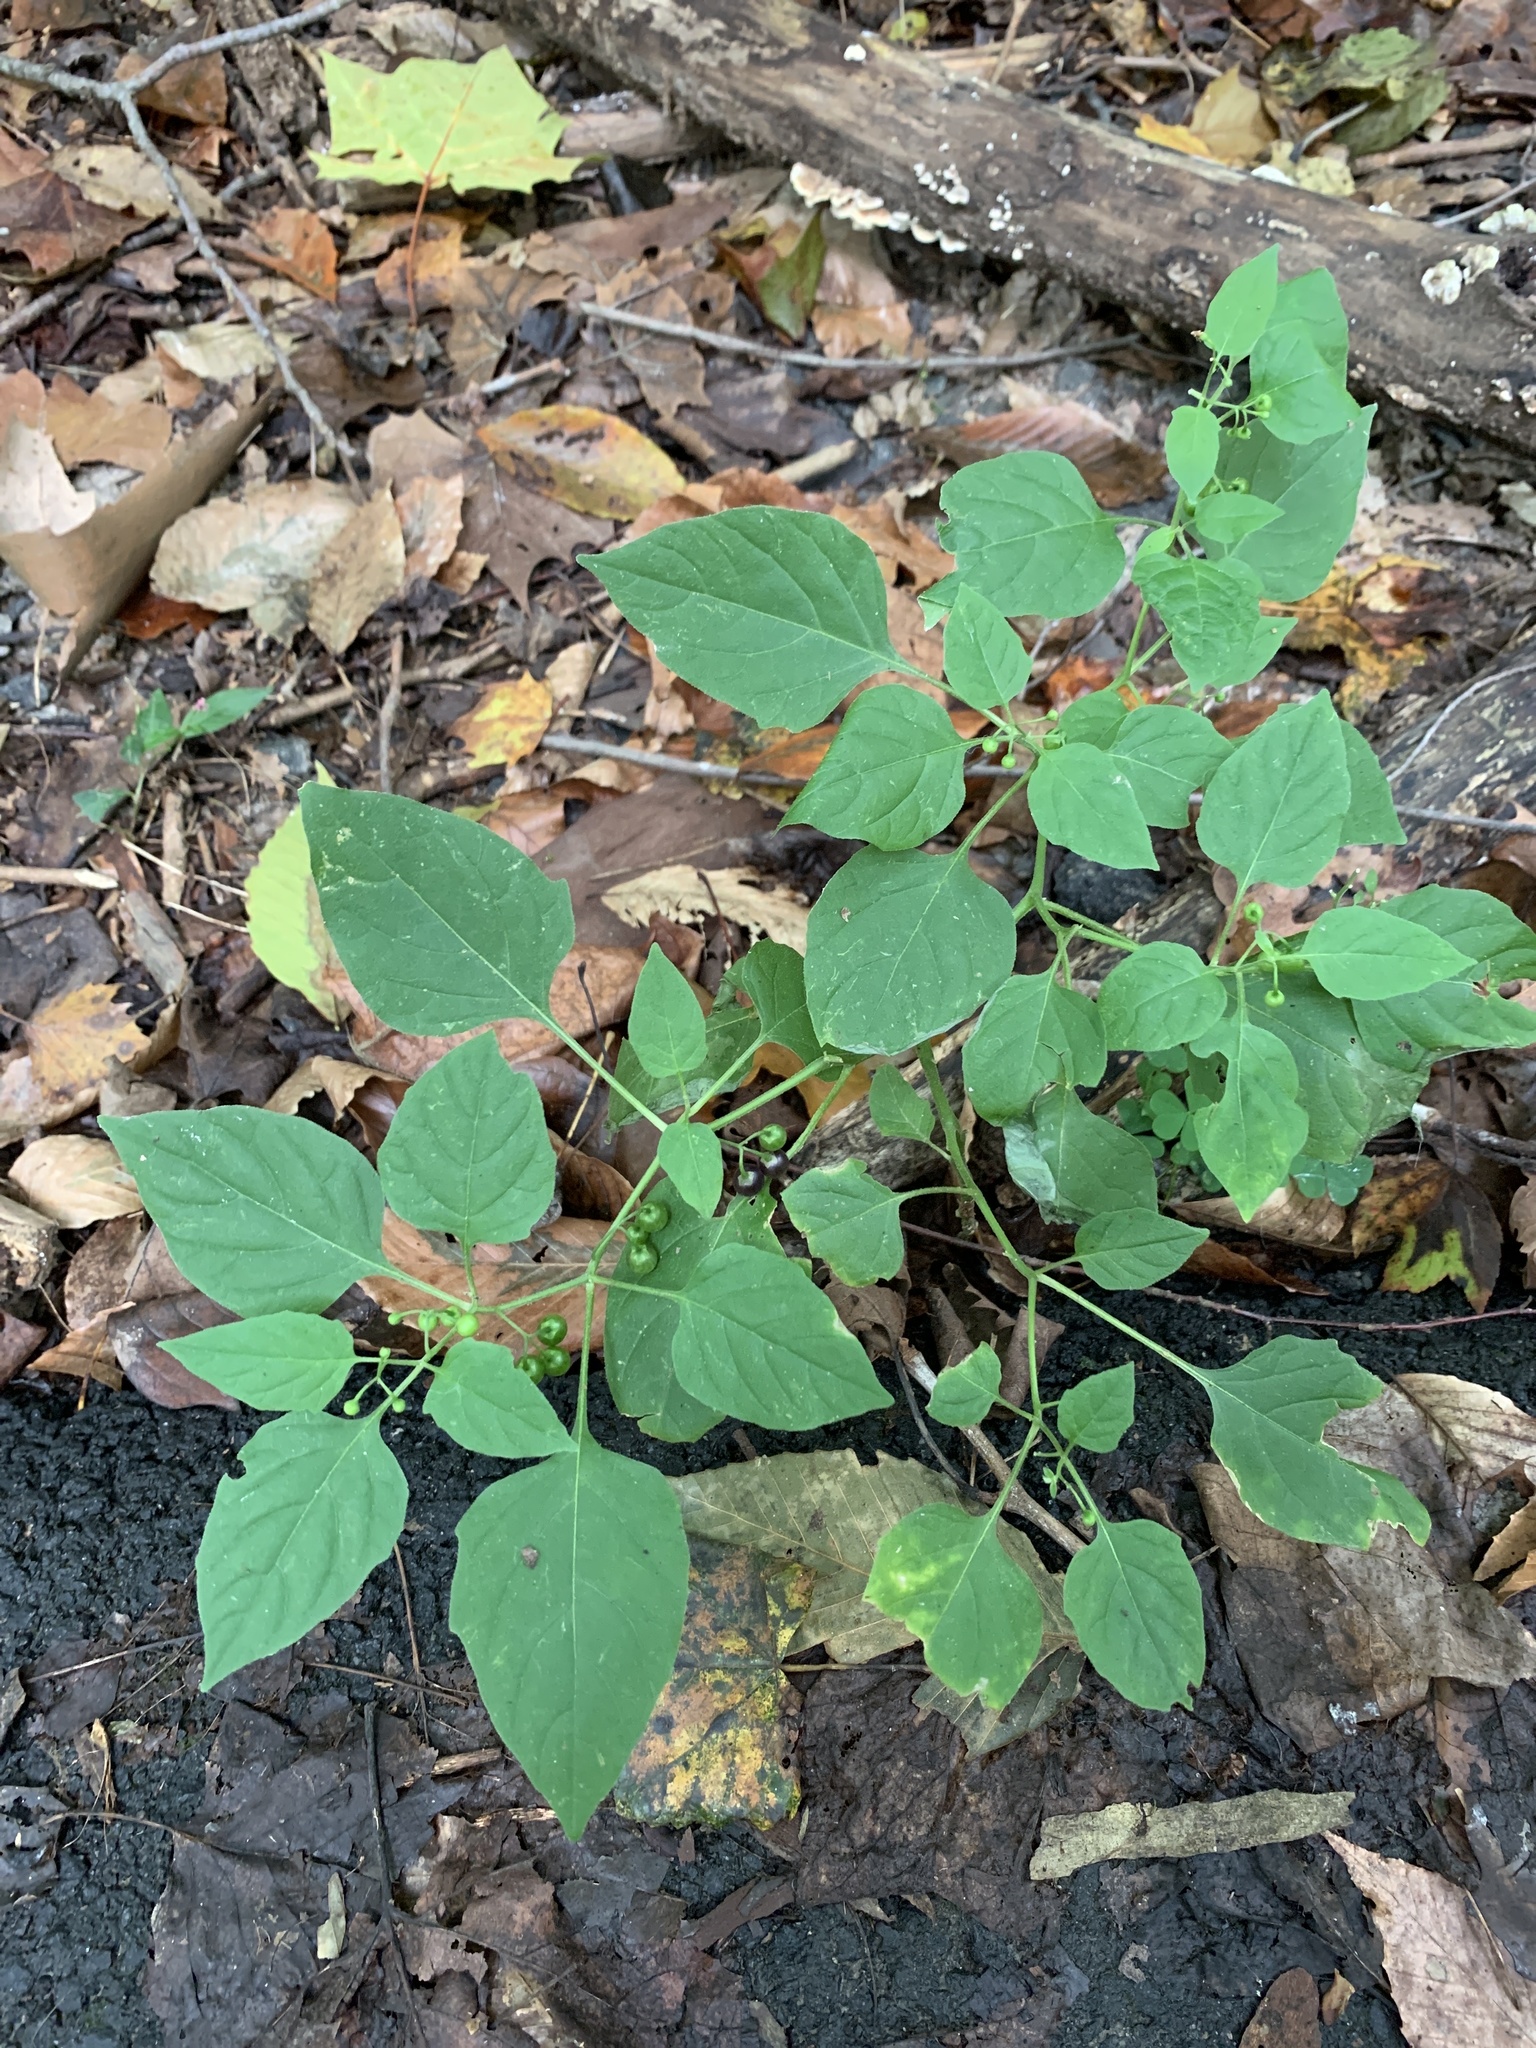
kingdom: Plantae
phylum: Tracheophyta
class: Magnoliopsida
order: Solanales
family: Solanaceae
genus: Solanum
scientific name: Solanum emulans
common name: Eastern black nightshade
